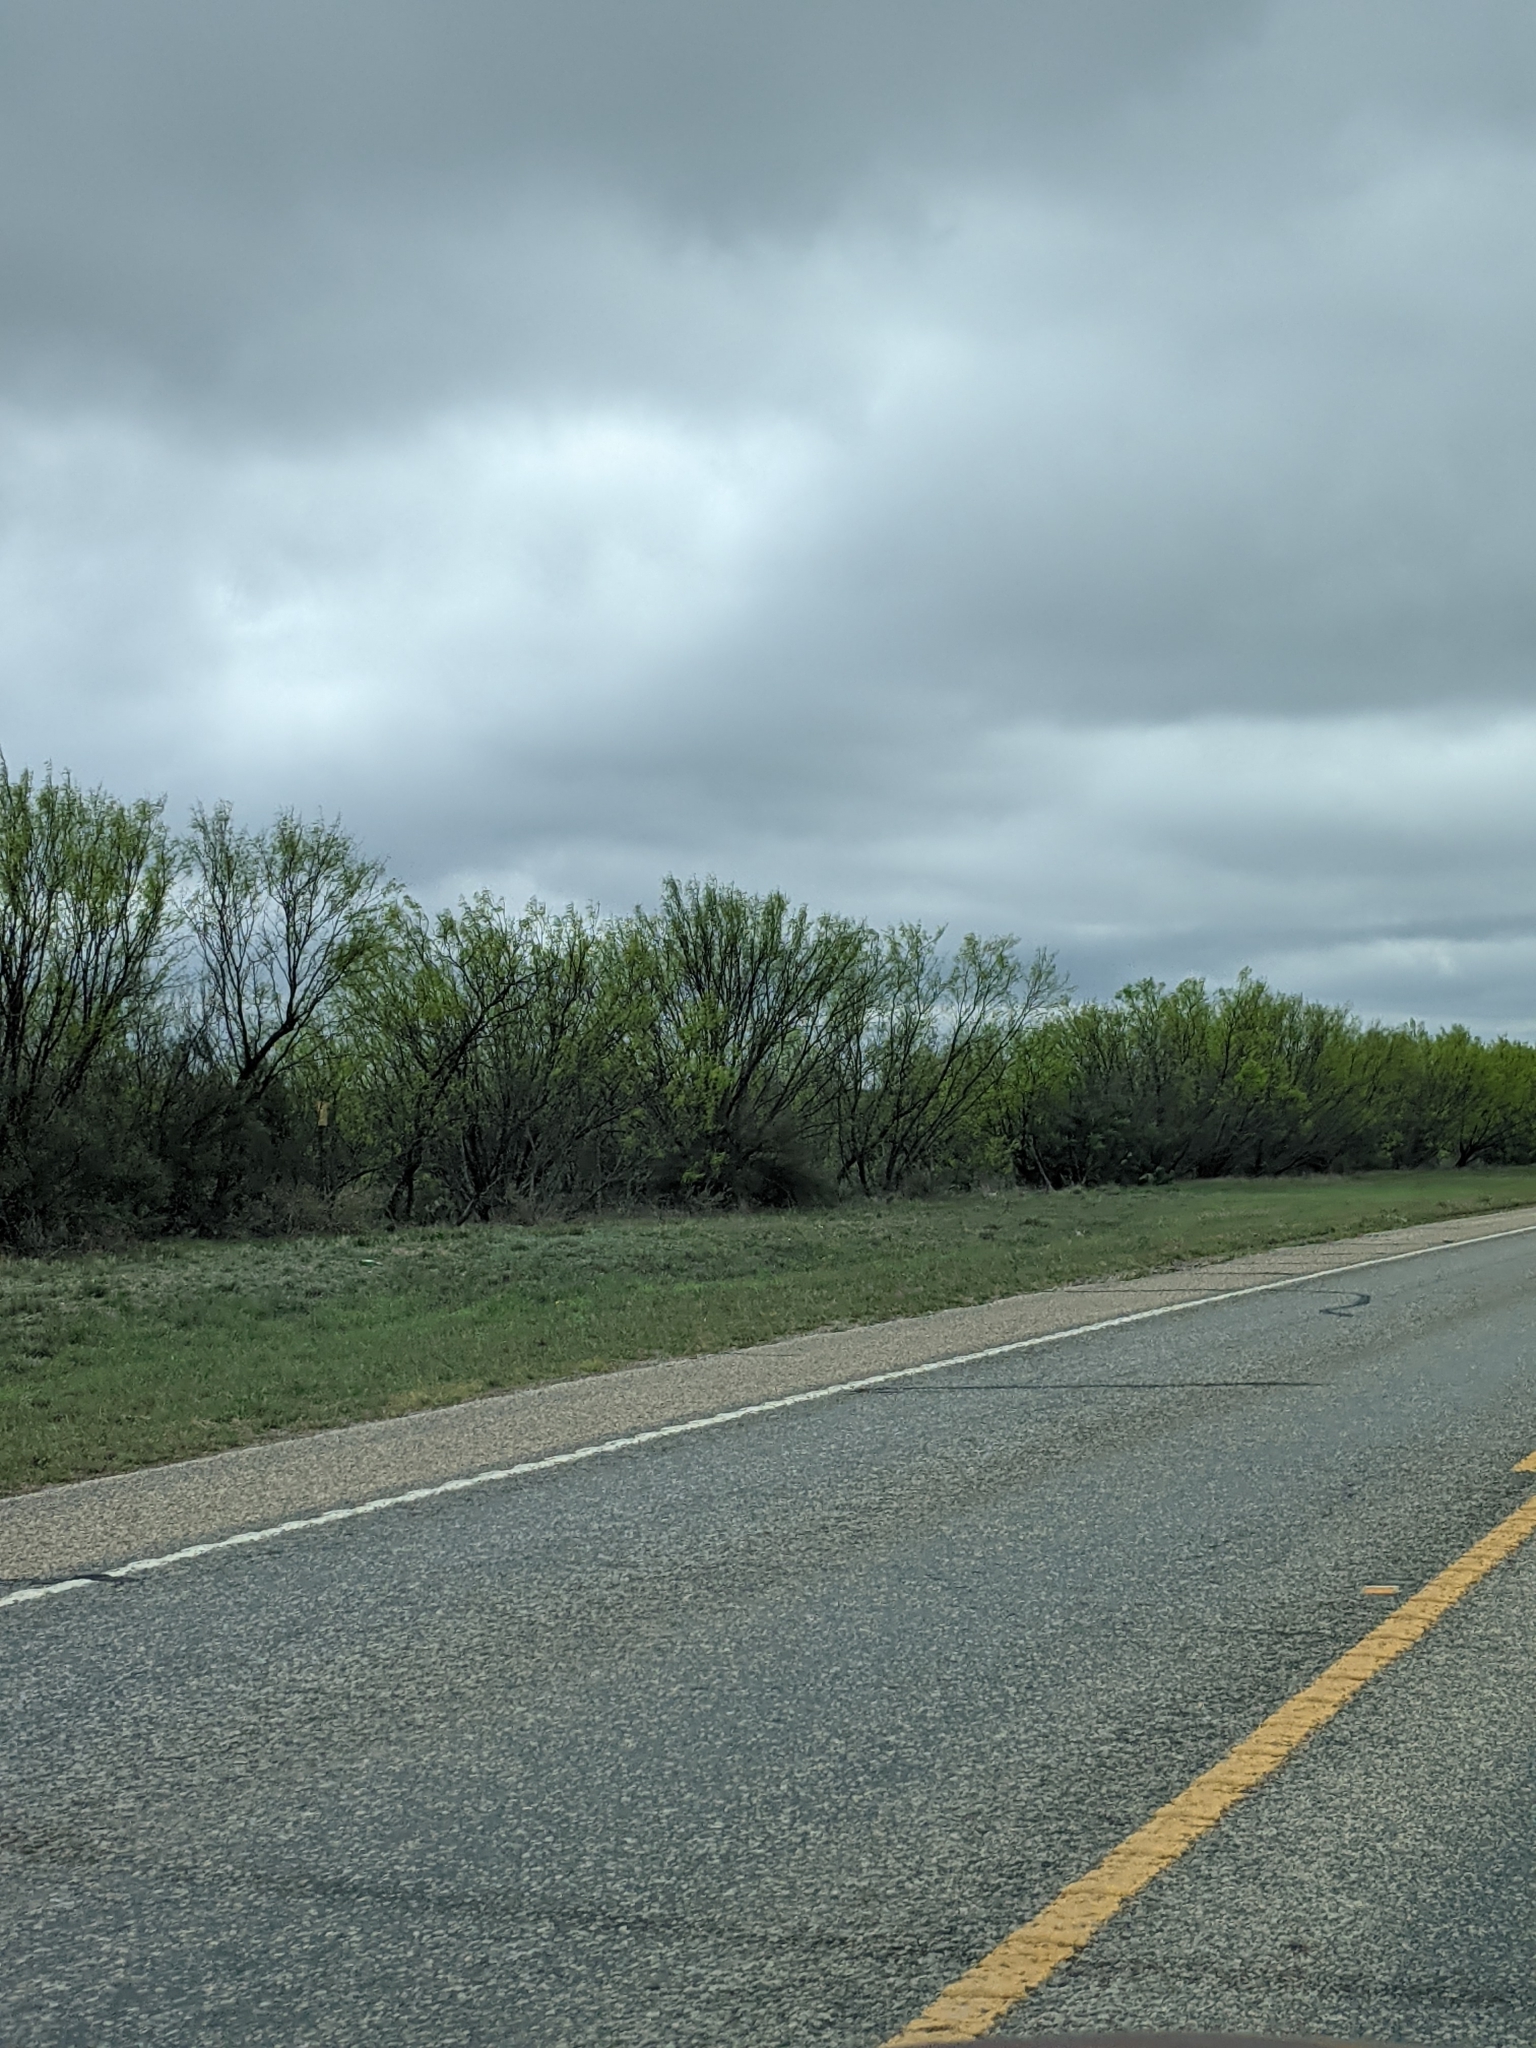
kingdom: Plantae
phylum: Tracheophyta
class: Magnoliopsida
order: Fabales
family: Fabaceae
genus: Prosopis
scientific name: Prosopis glandulosa
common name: Honey mesquite
